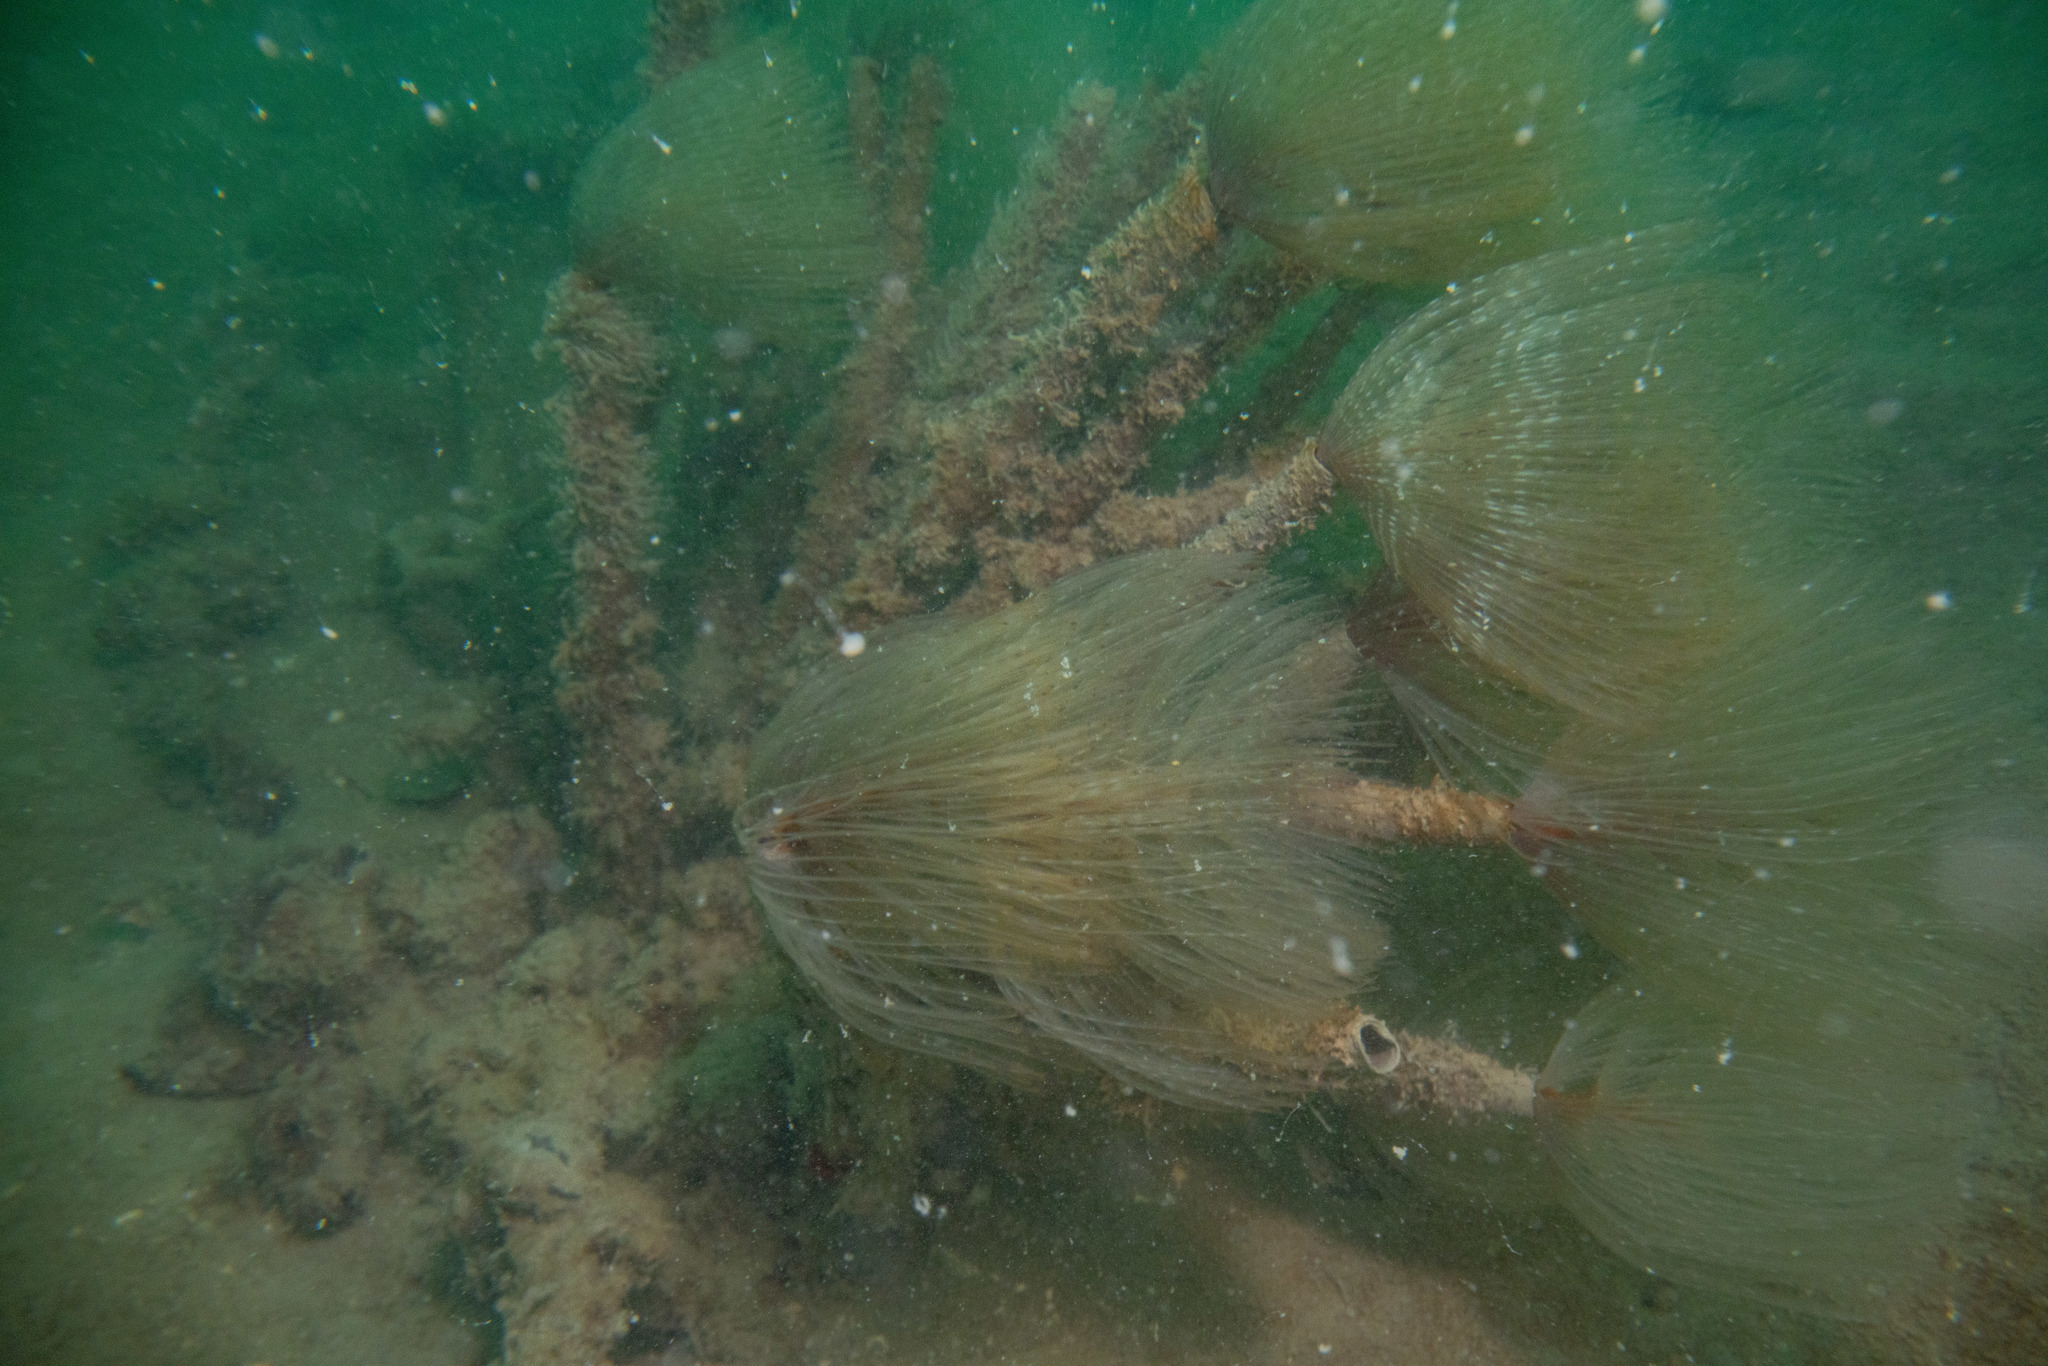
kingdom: Animalia
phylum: Annelida
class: Polychaeta
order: Sabellida
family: Sabellidae
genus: Sabella
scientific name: Sabella spallanzanii
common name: Feather duster worm
